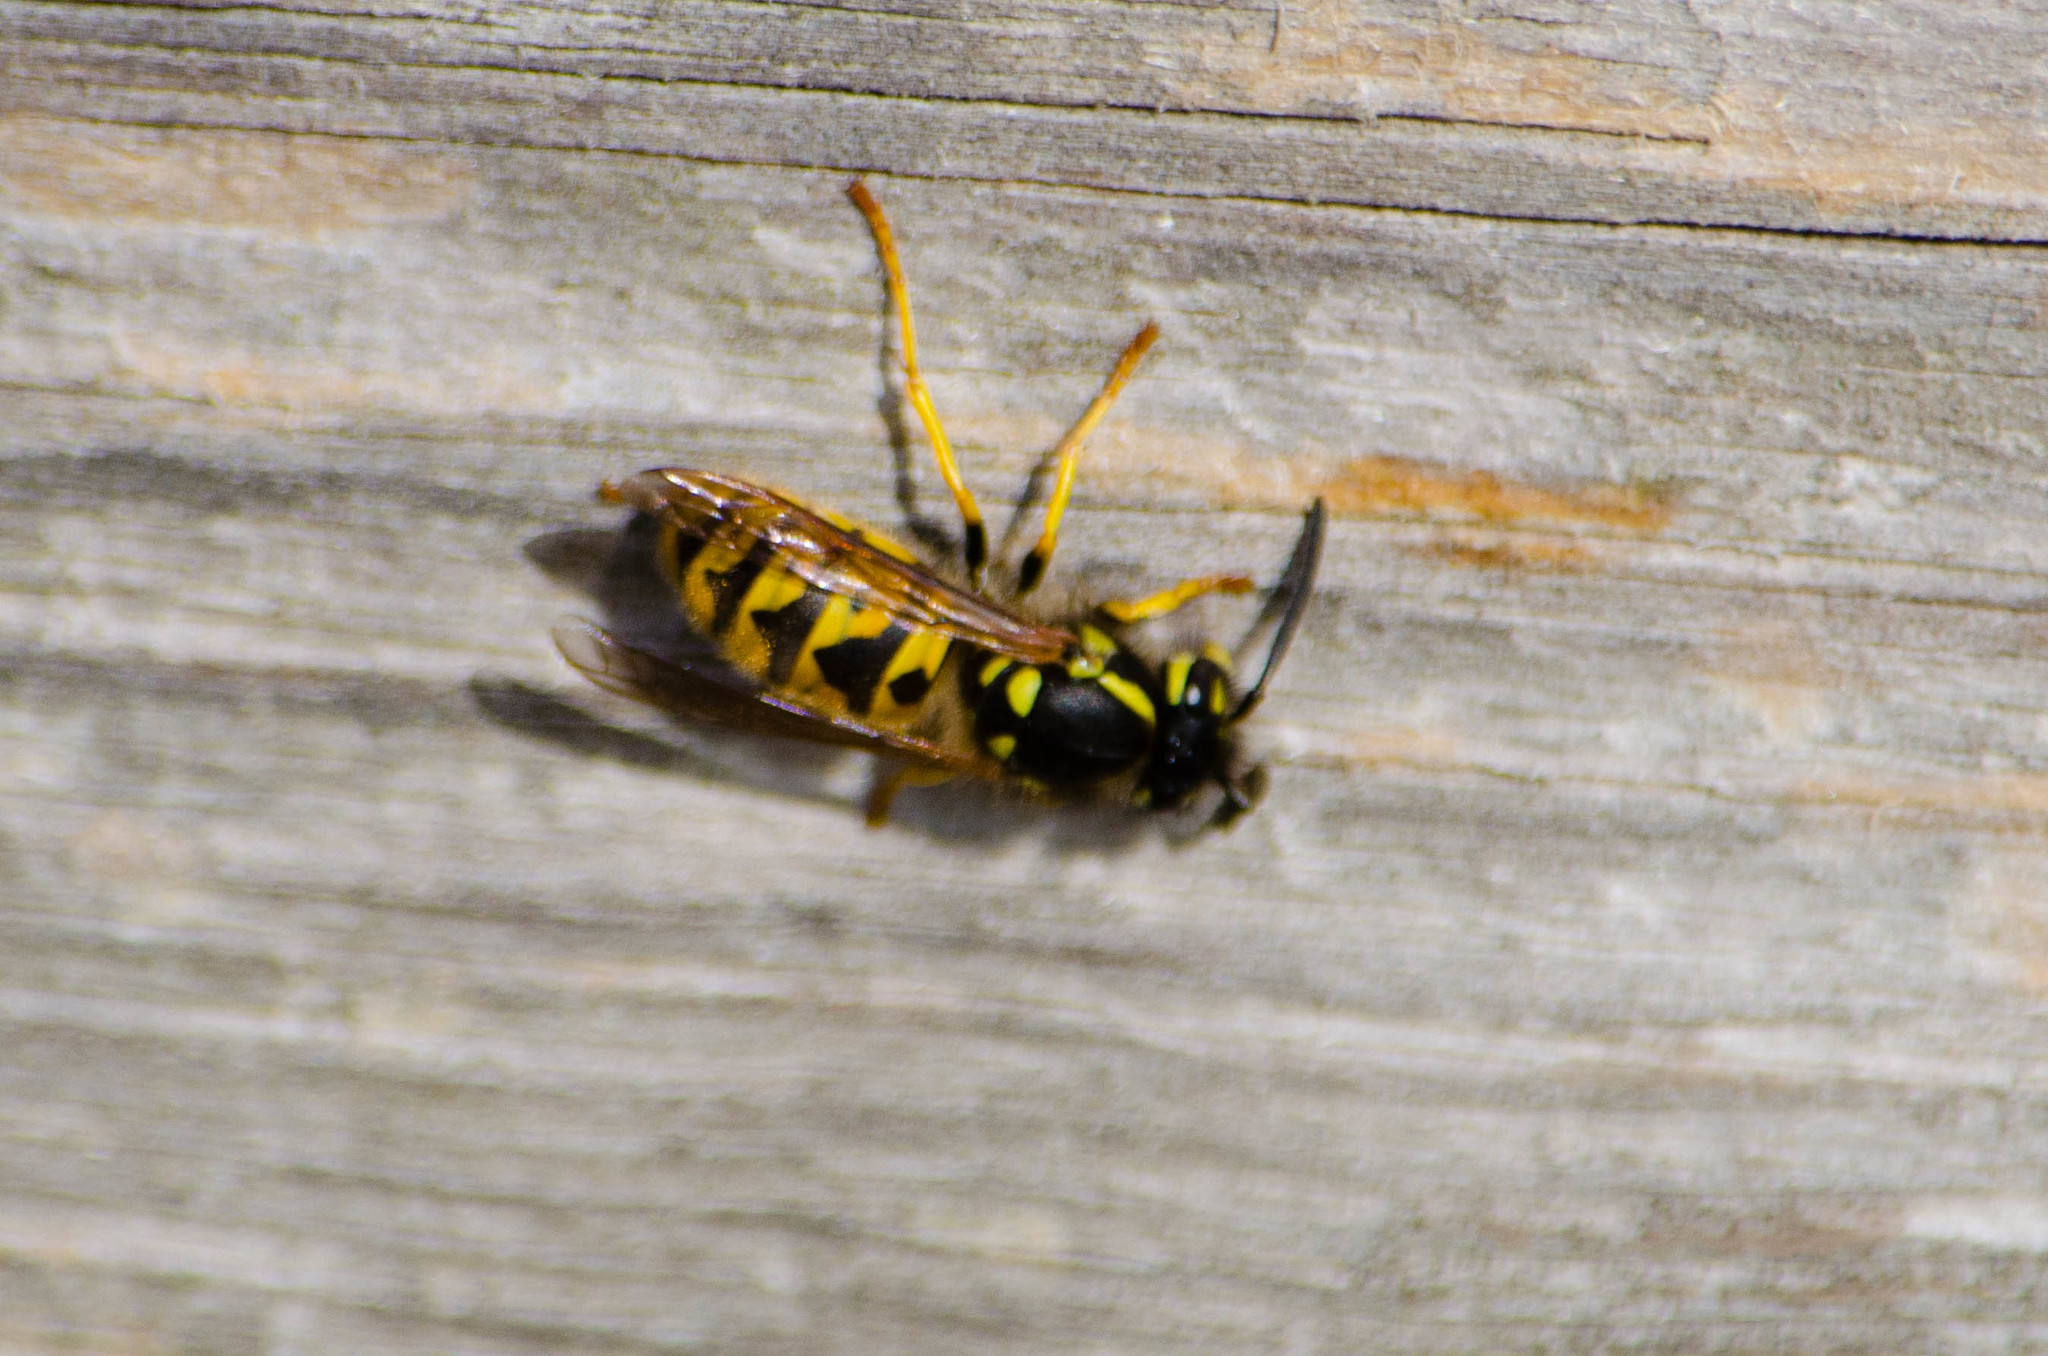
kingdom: Animalia
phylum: Arthropoda
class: Insecta
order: Hymenoptera
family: Vespidae
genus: Vespula
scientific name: Vespula germanica
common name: German wasp
